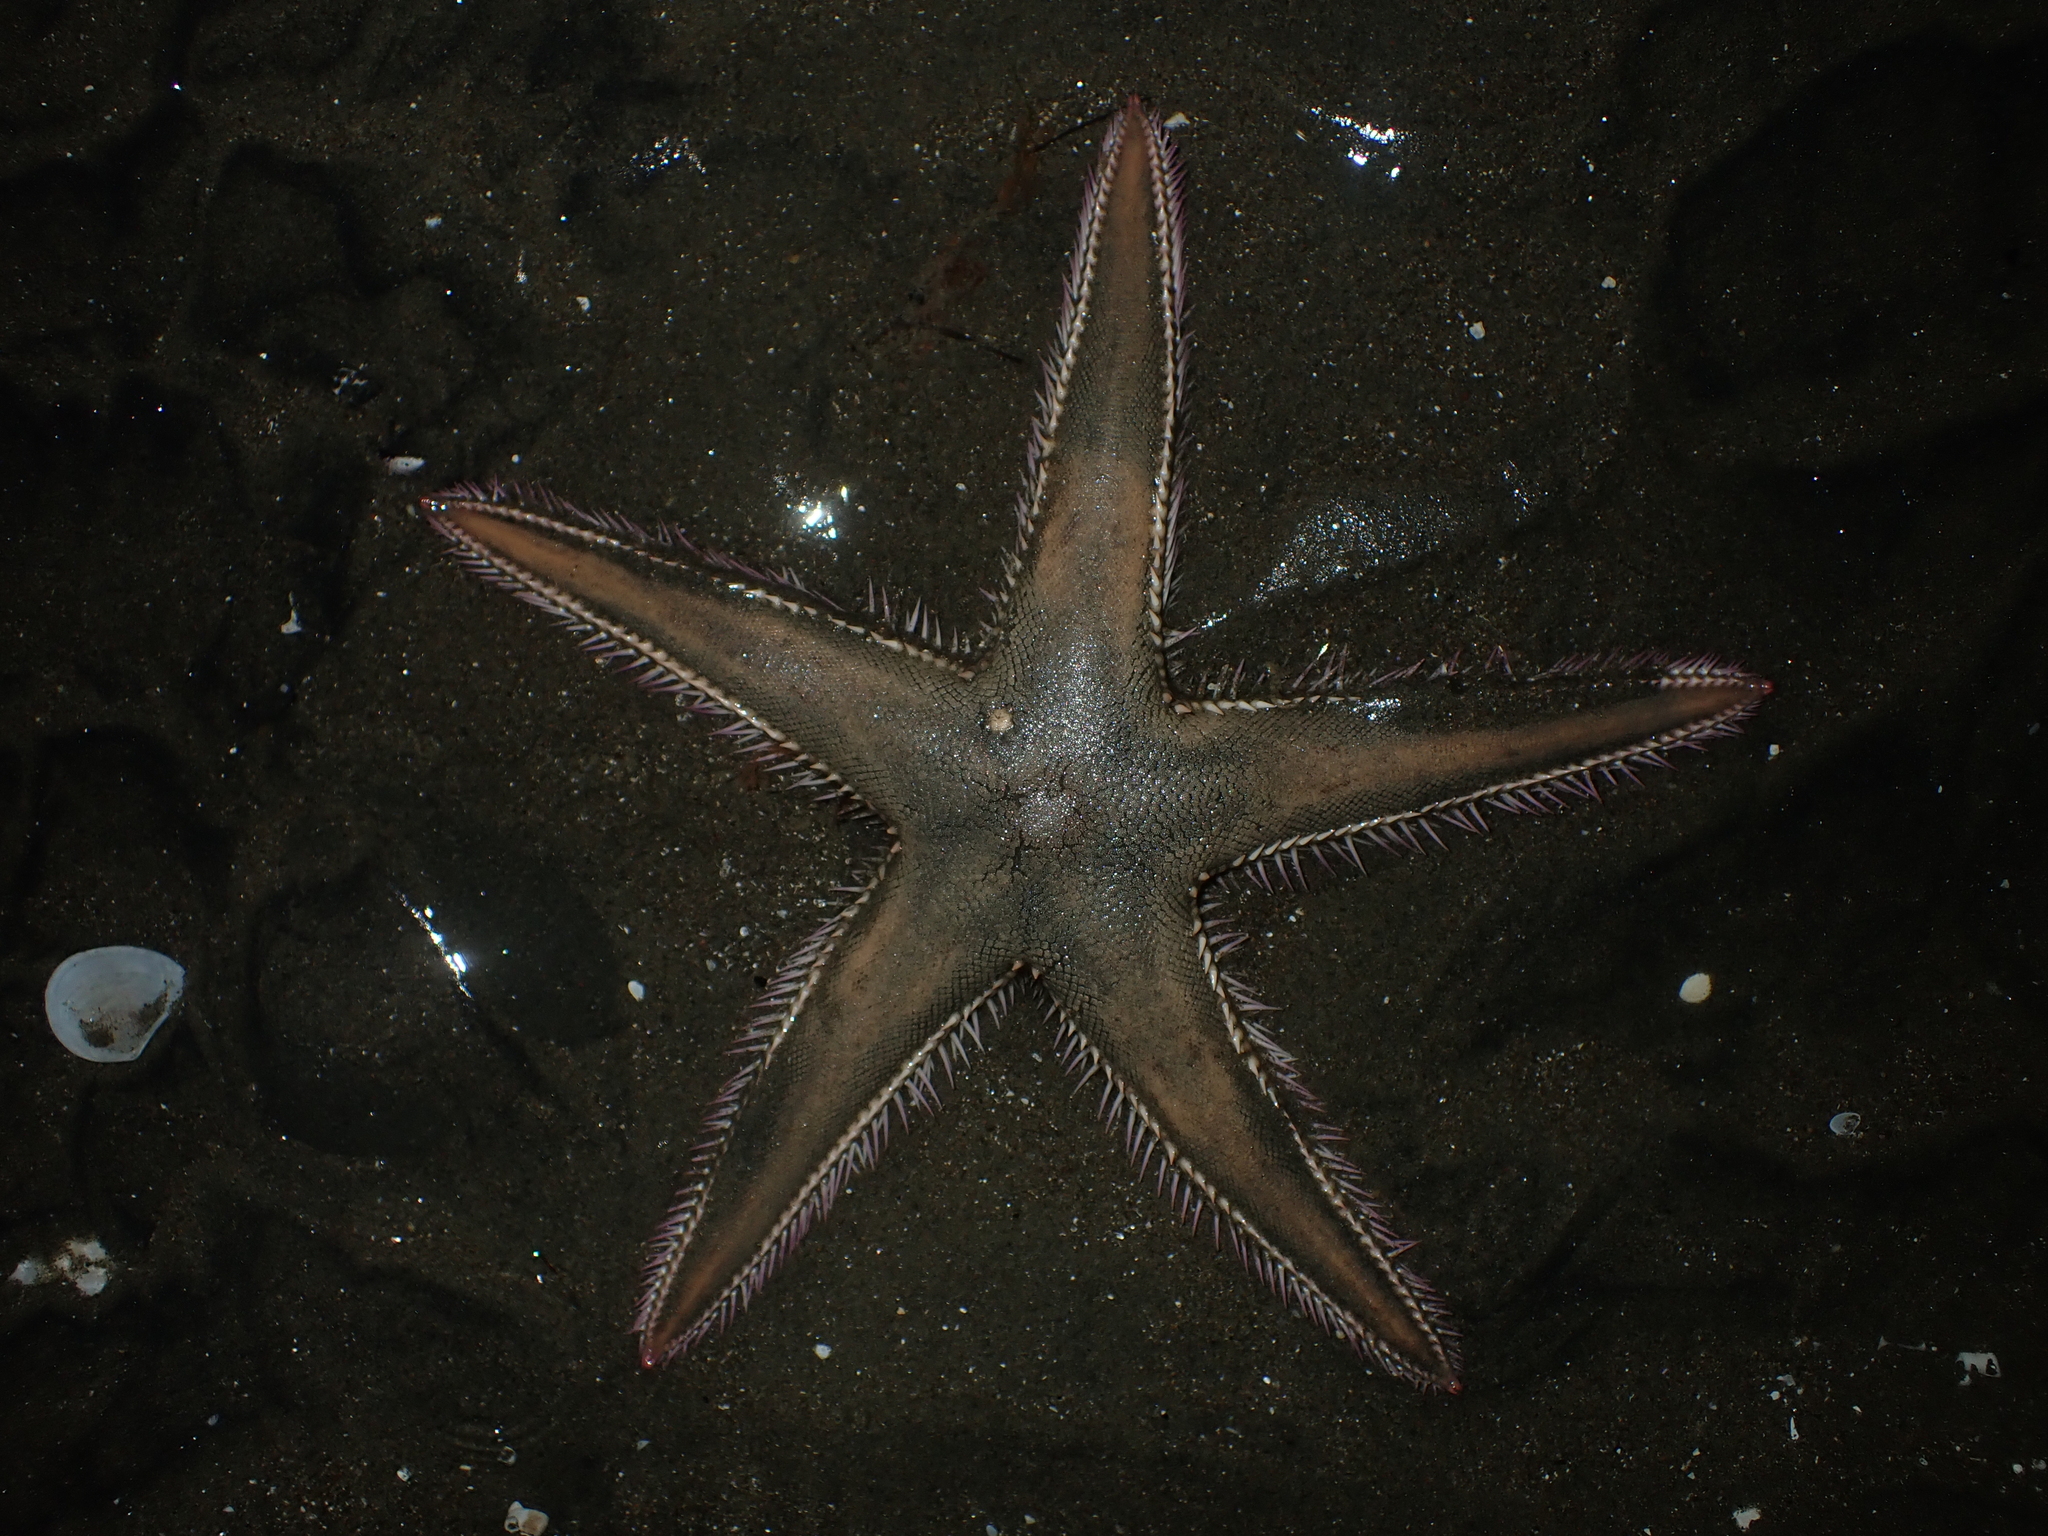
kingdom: Animalia
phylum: Echinodermata
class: Asteroidea
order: Paxillosida
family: Astropectinidae
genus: Astropecten
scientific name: Astropecten polyacanthus
